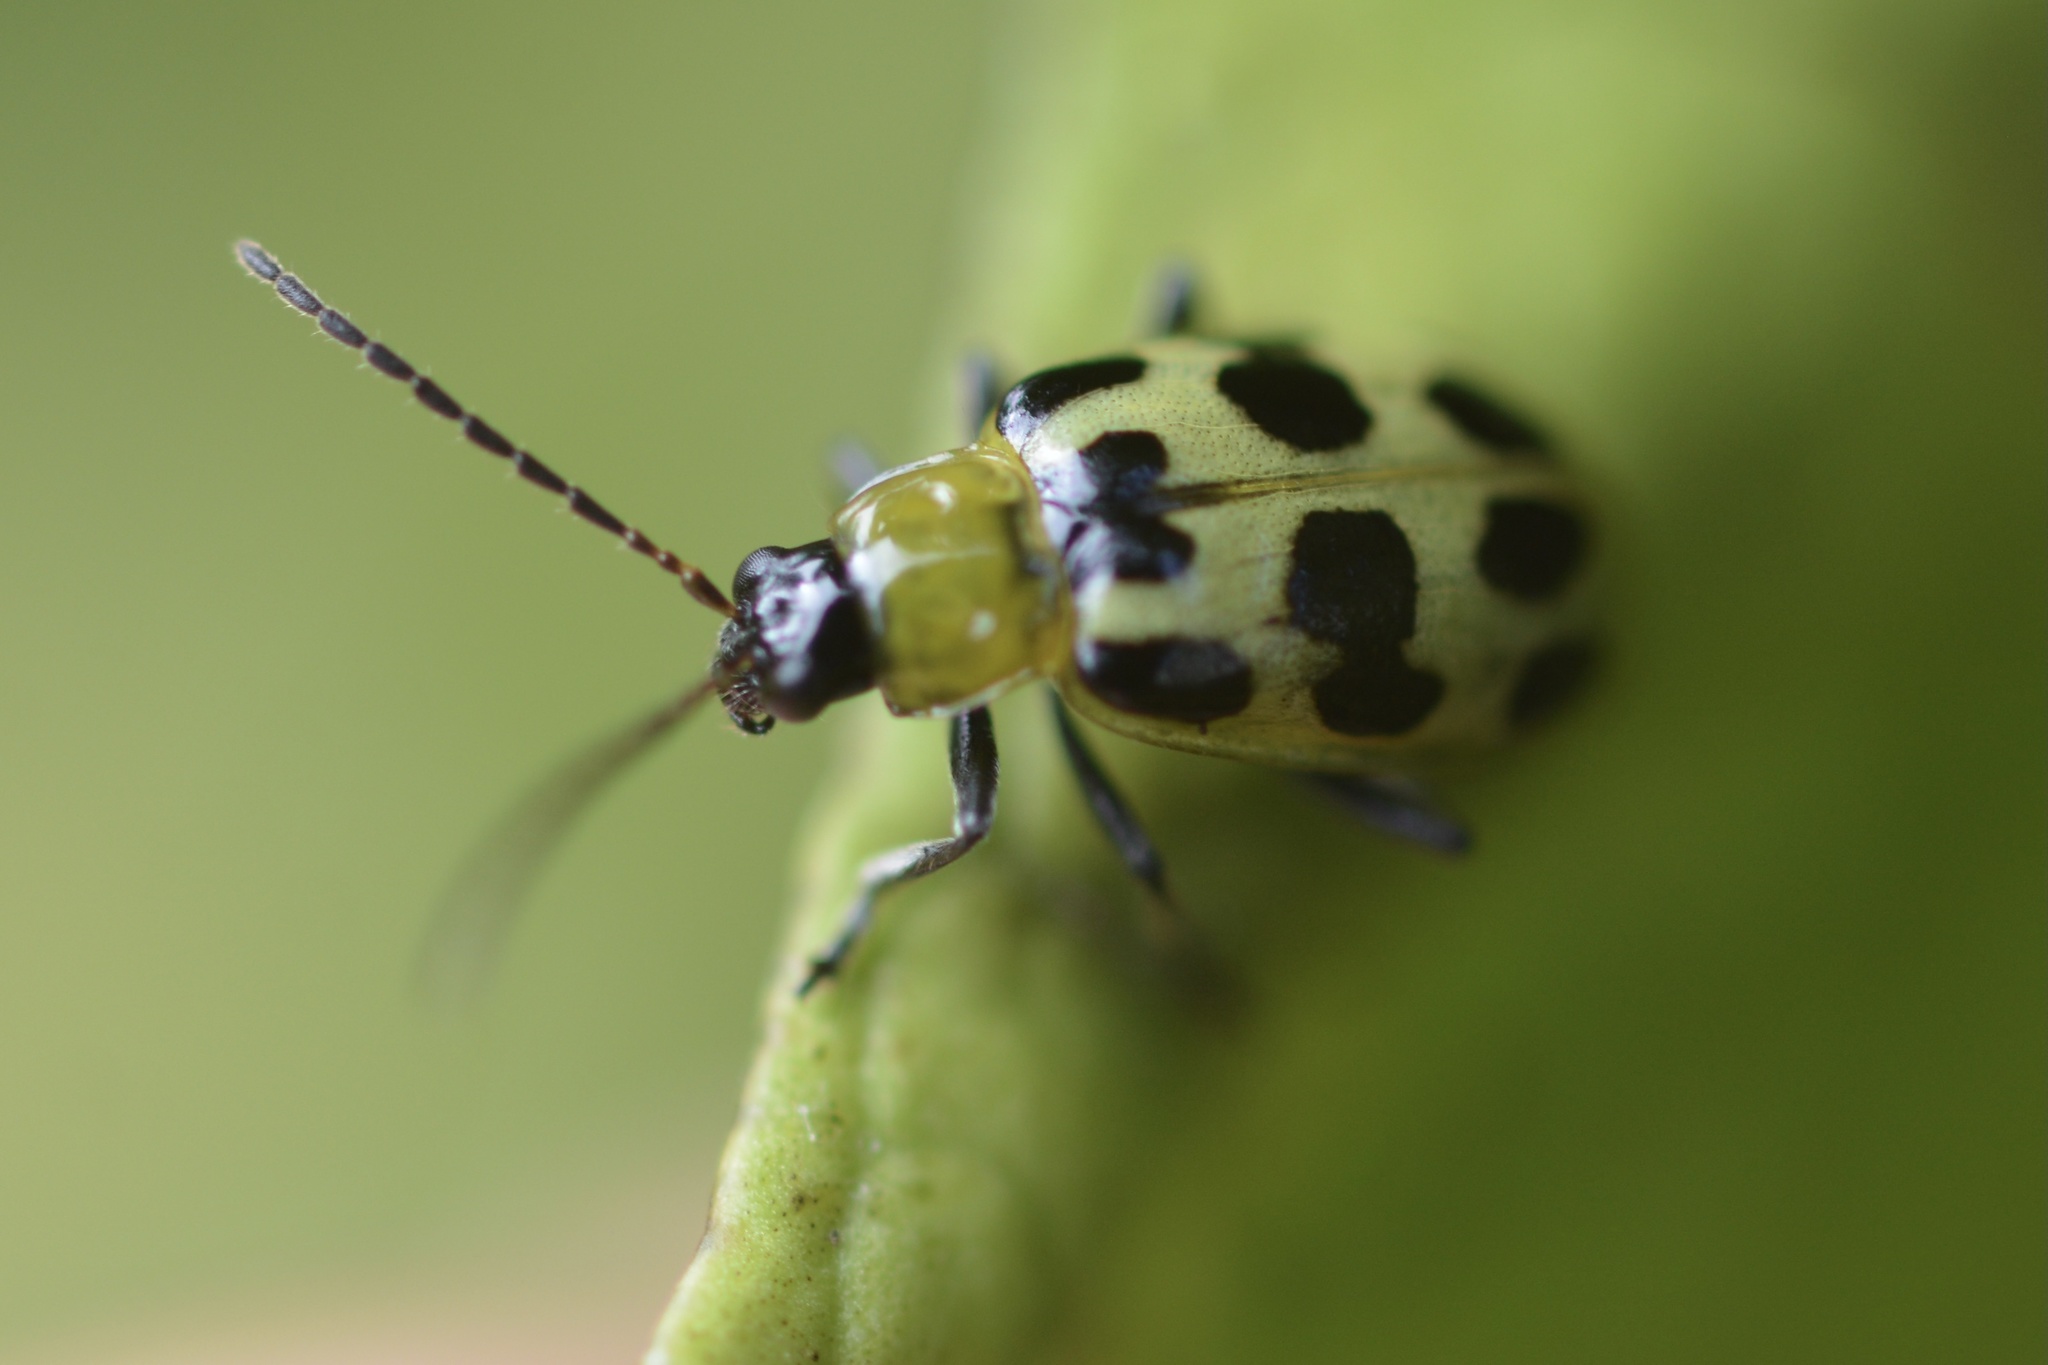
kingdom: Animalia
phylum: Arthropoda
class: Insecta
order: Coleoptera
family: Chrysomelidae
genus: Diabrotica
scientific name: Diabrotica undecimpunctata
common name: Spotted cucumber beetle
